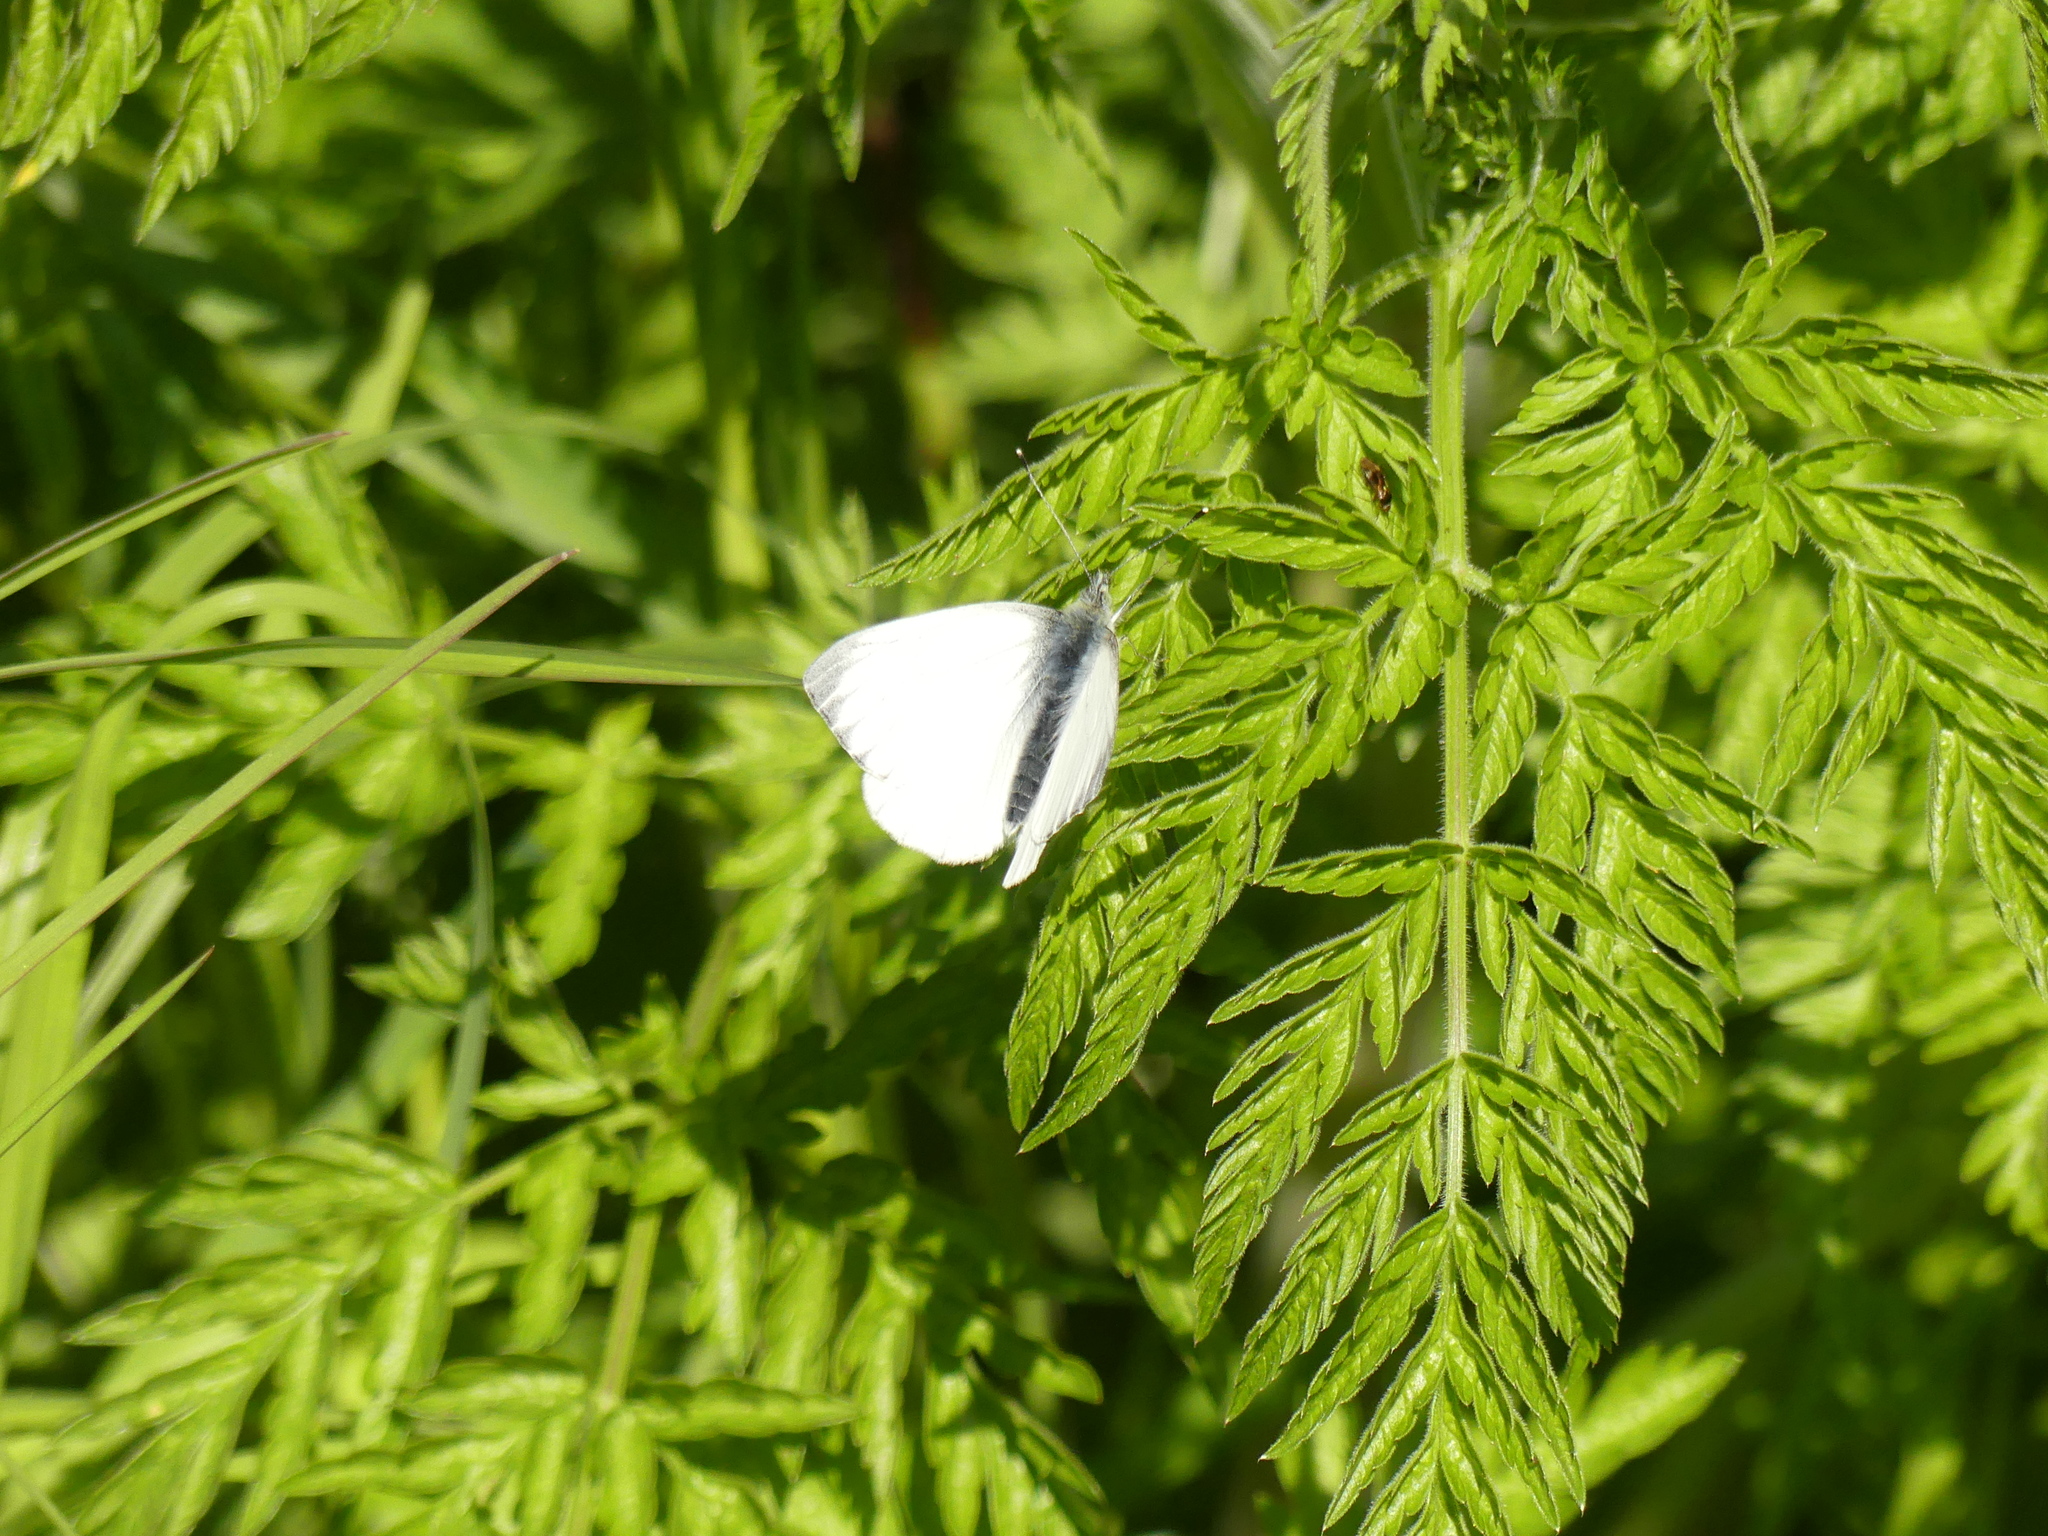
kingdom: Animalia
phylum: Arthropoda
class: Insecta
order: Lepidoptera
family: Pieridae
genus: Pieris
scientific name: Pieris napi
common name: Green-veined white
